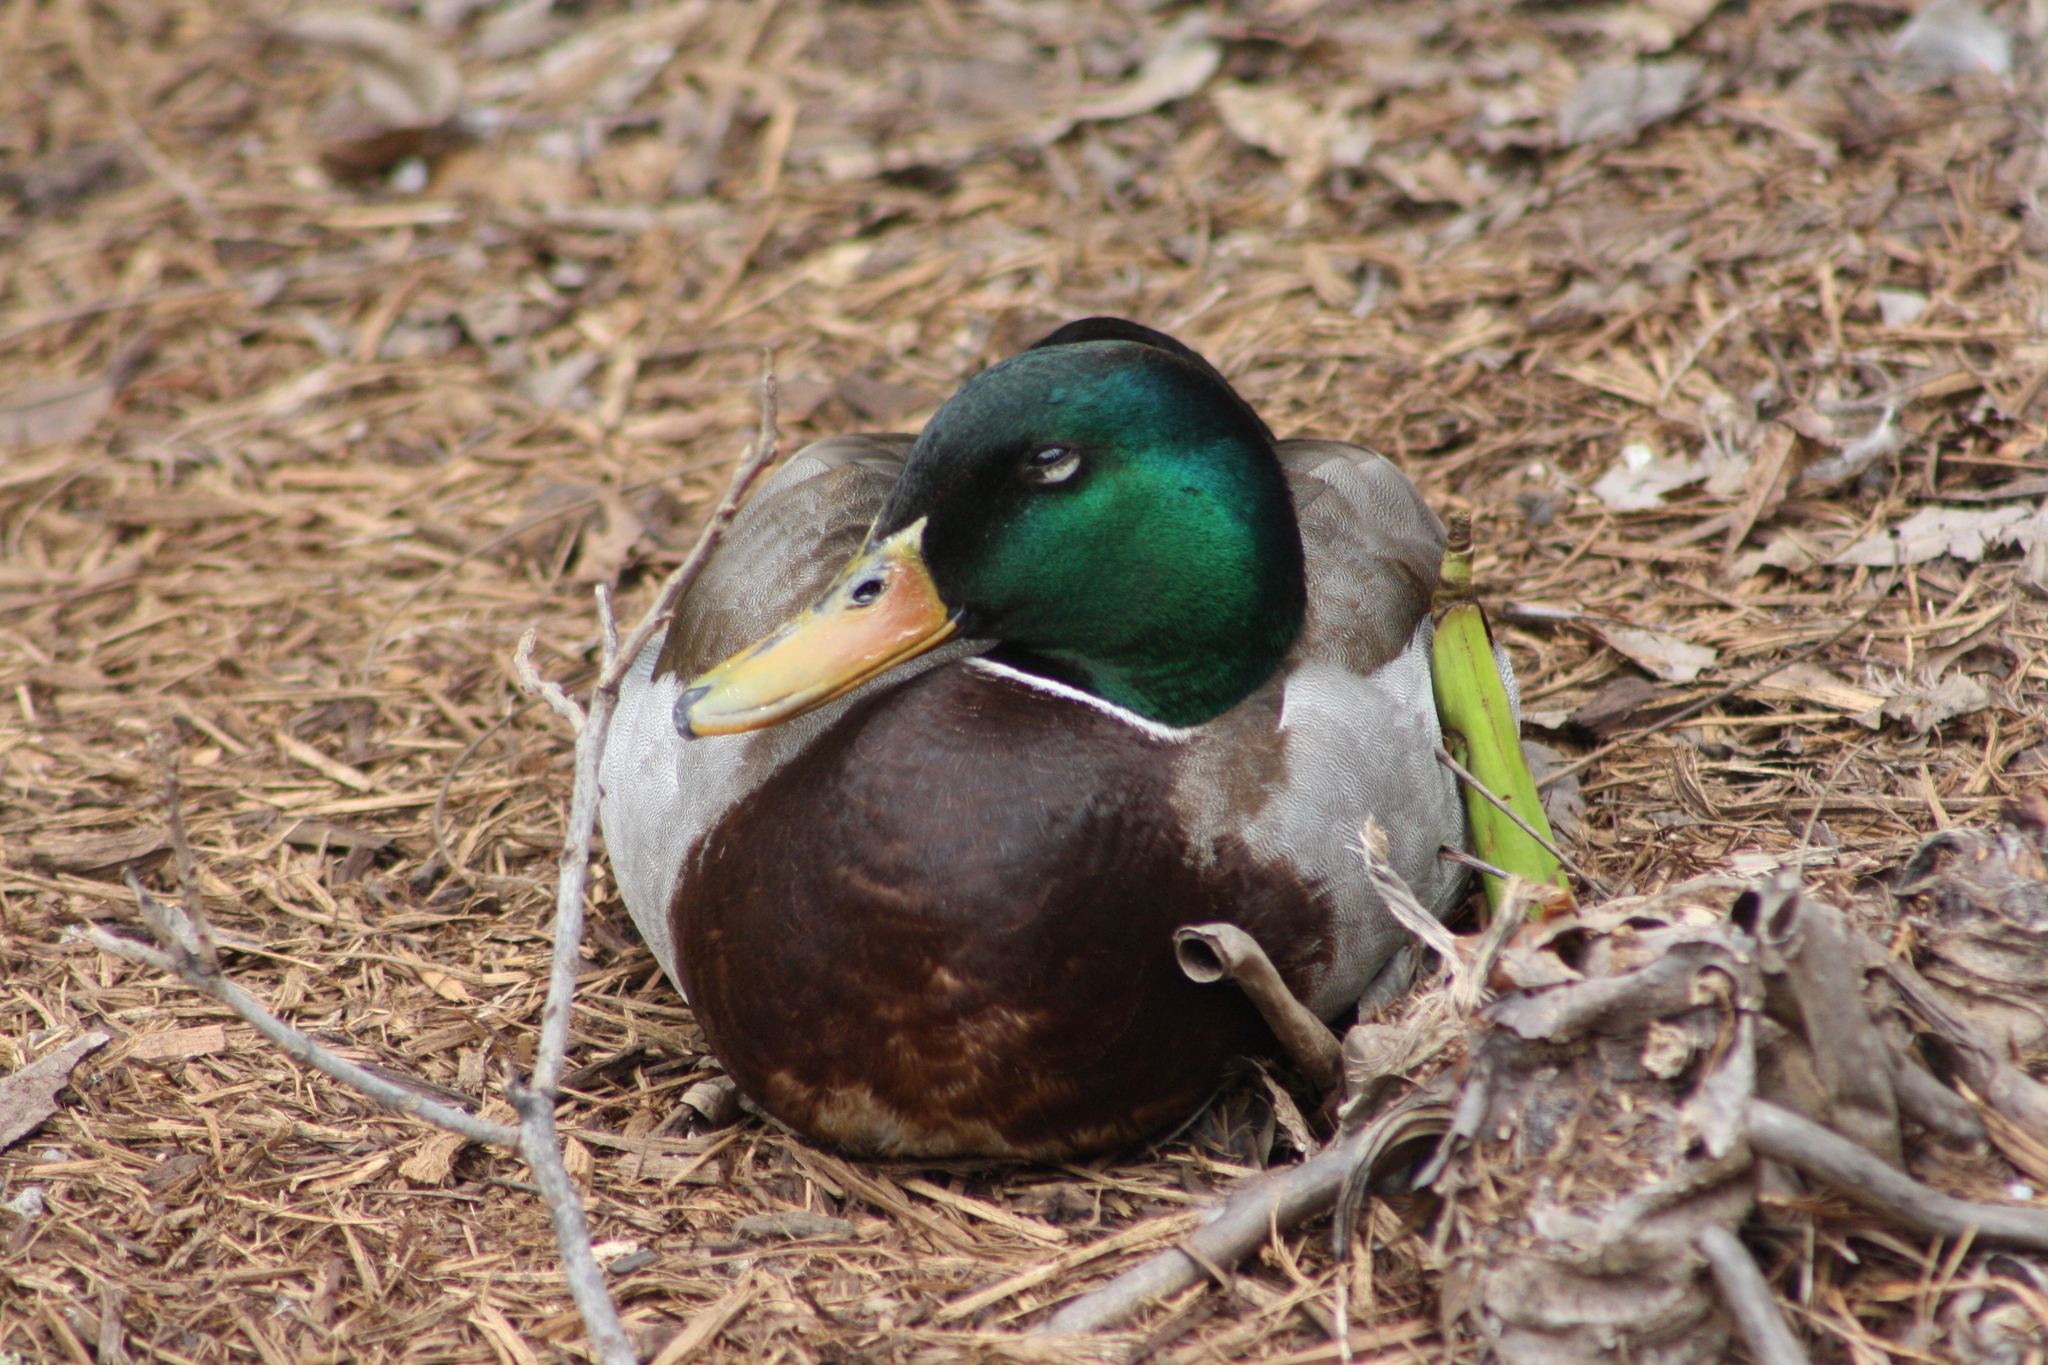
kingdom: Animalia
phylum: Chordata
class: Aves
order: Anseriformes
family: Anatidae
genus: Anas
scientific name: Anas platyrhynchos
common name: Mallard
